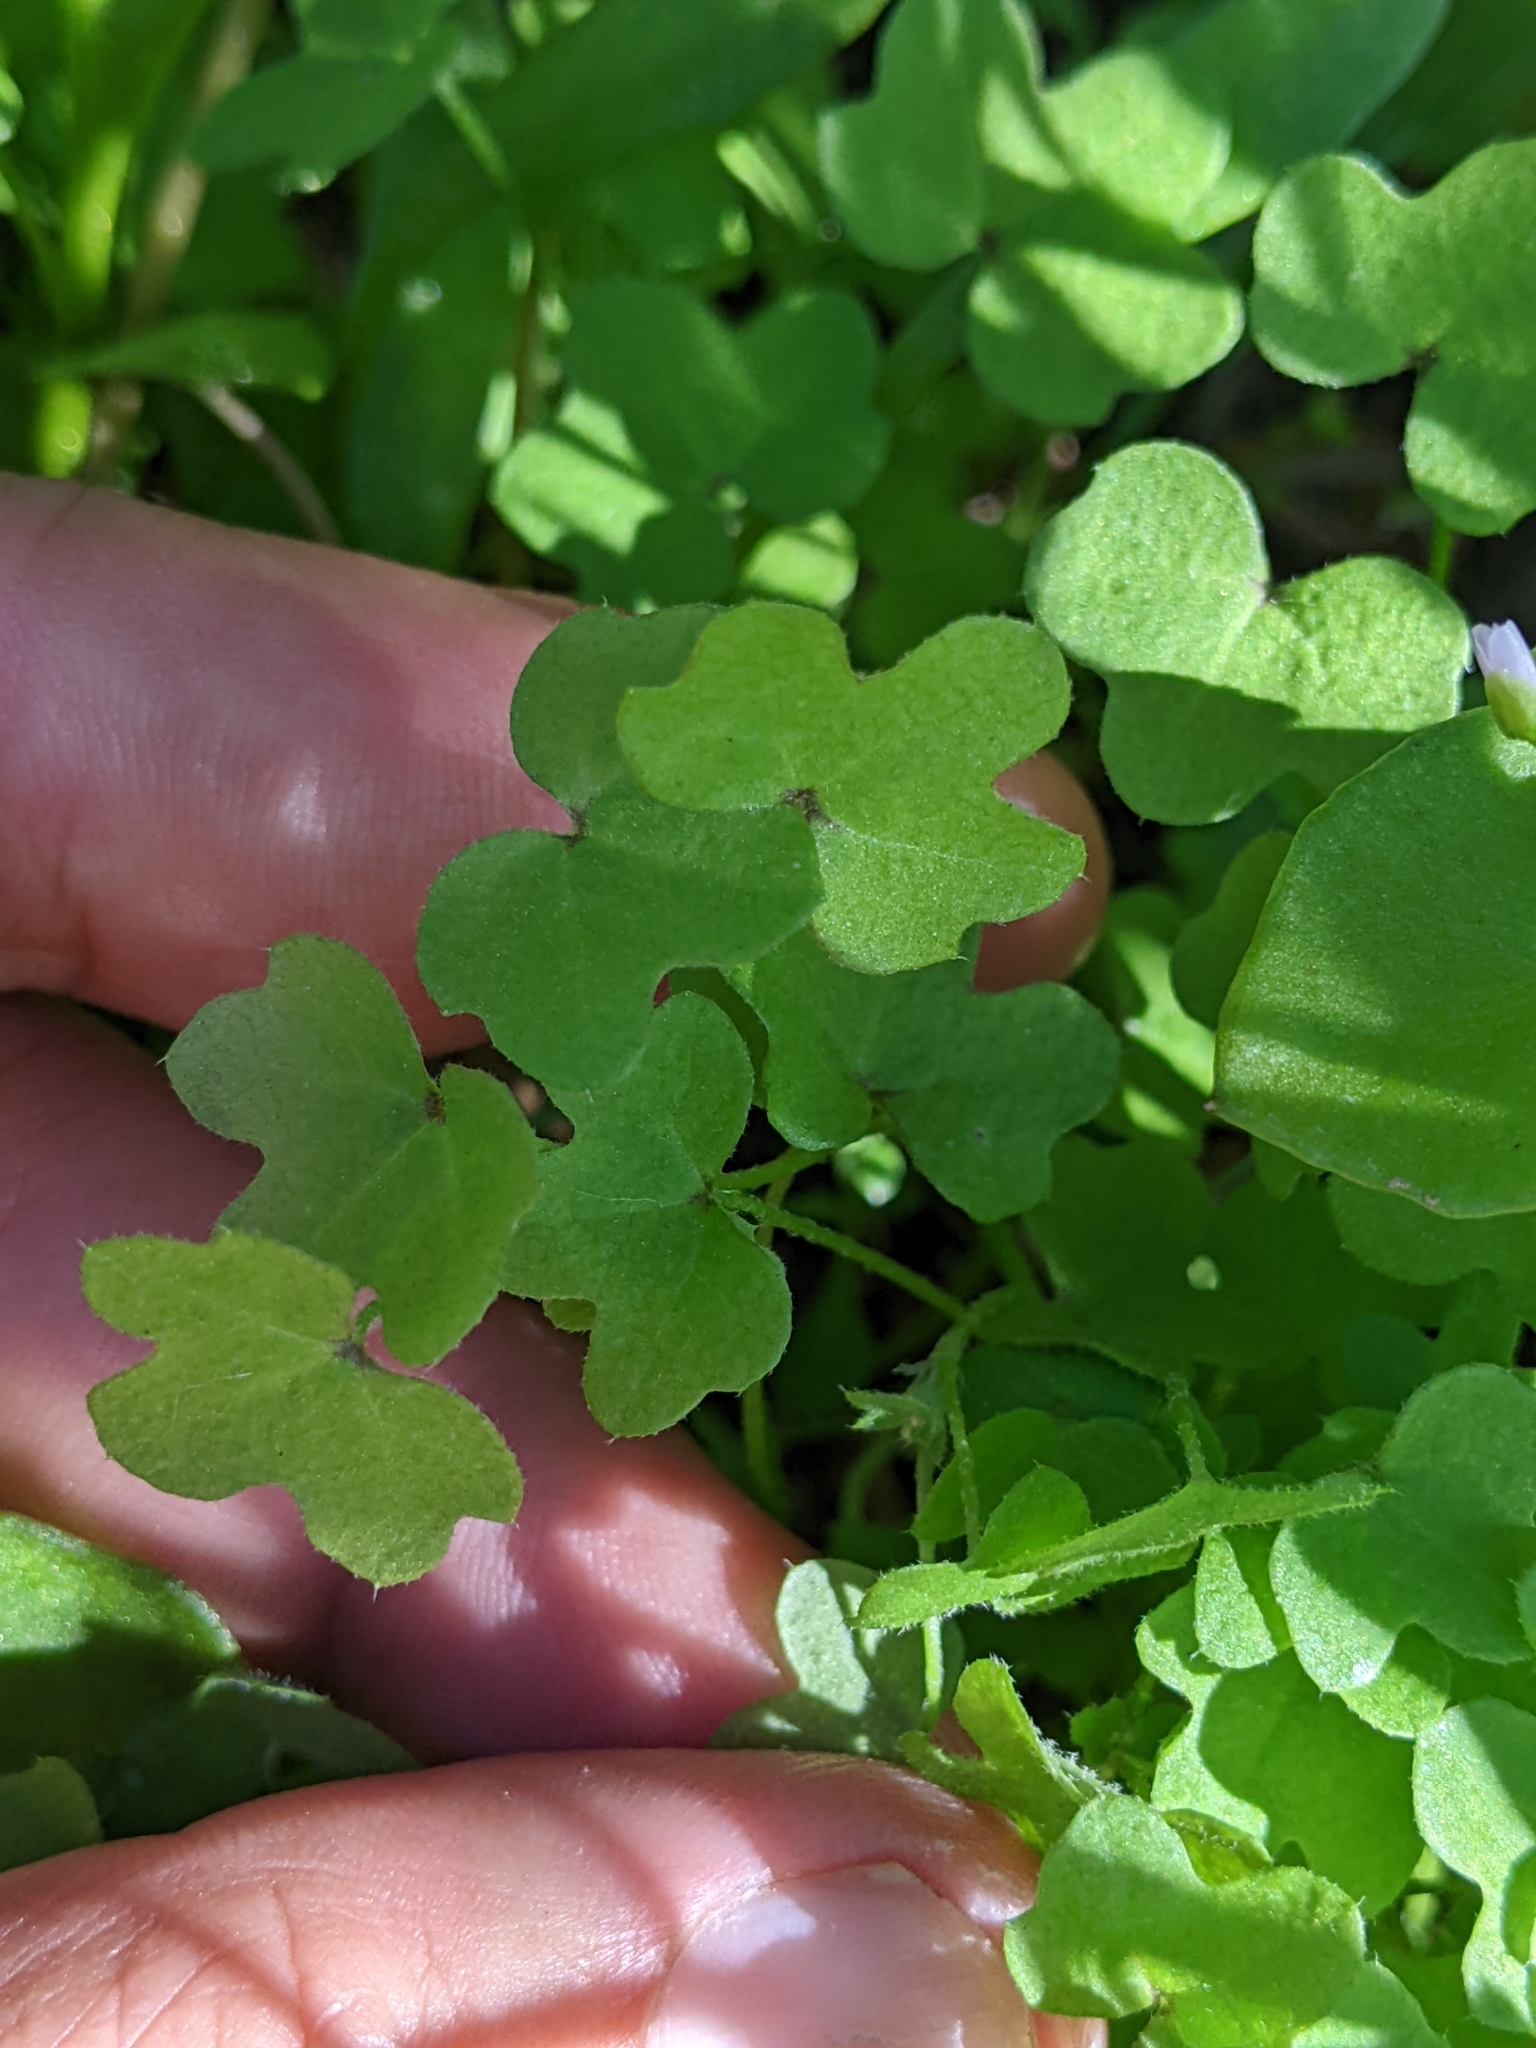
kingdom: Plantae
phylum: Tracheophyta
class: Magnoliopsida
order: Apiales
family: Apiaceae
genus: Bowlesia
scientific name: Bowlesia incana
